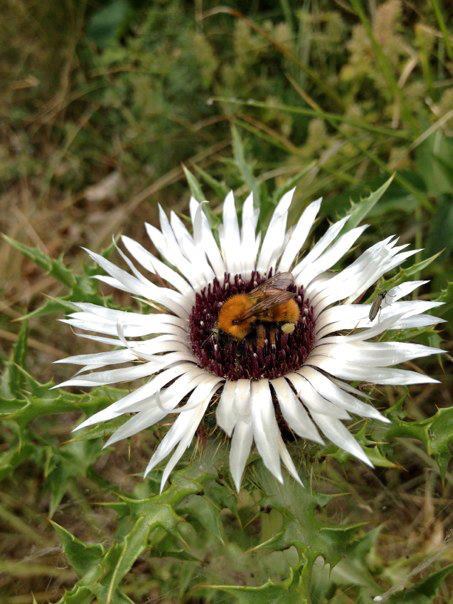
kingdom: Animalia
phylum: Arthropoda
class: Insecta
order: Hymenoptera
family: Apidae
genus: Bombus
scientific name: Bombus pascuorum
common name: Common carder bee
